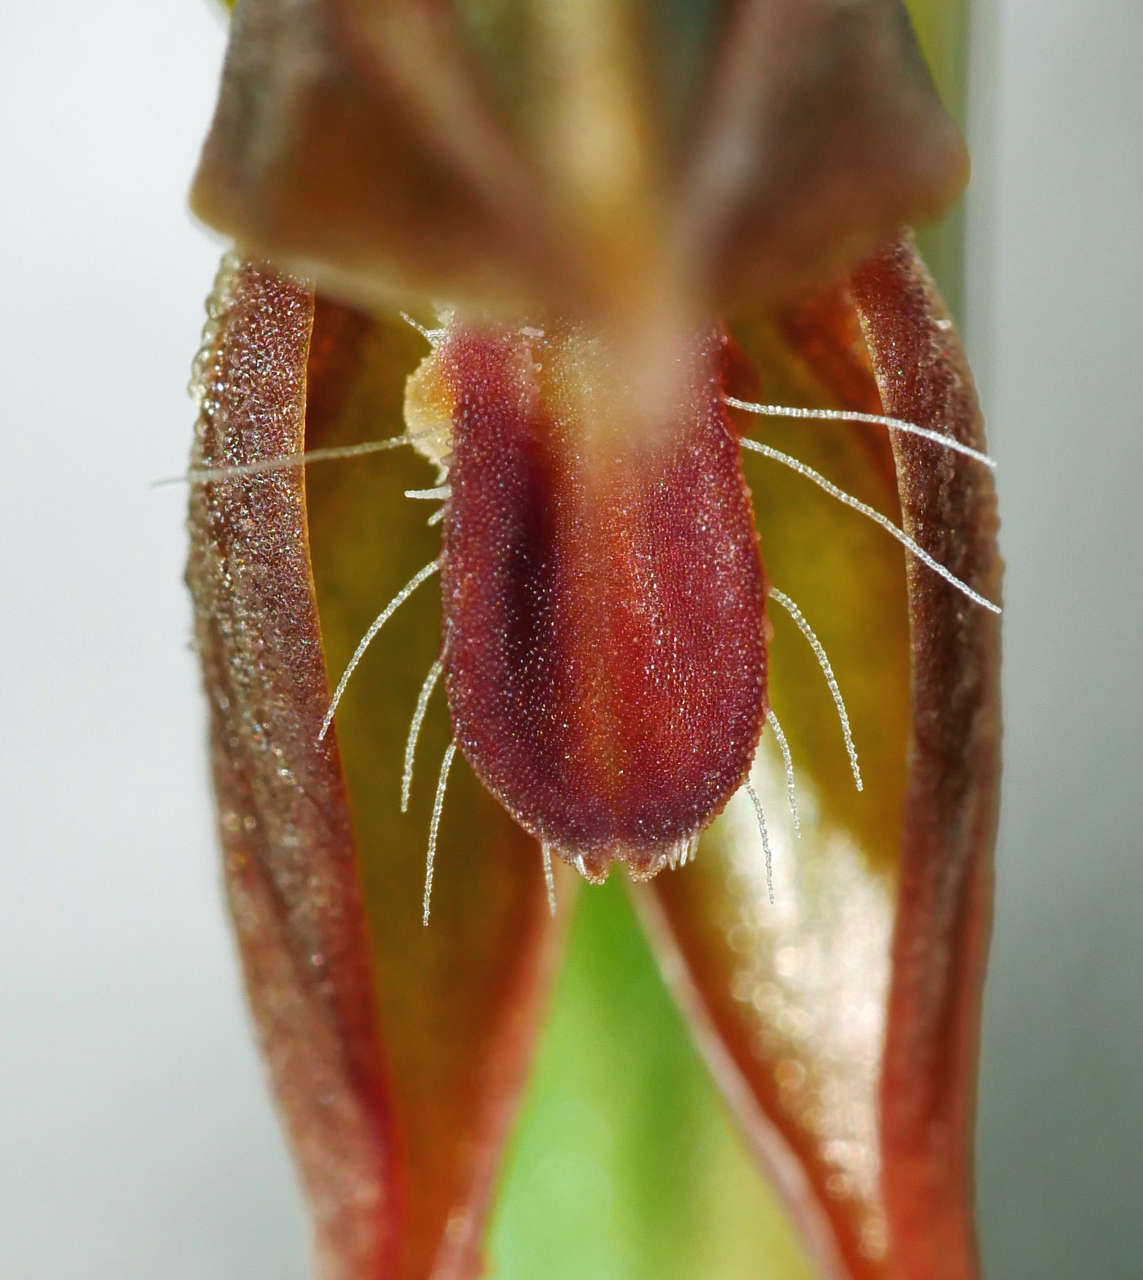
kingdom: Plantae
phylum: Tracheophyta
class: Liliopsida
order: Asparagales
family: Orchidaceae
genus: Pterostylis
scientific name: Pterostylis aciculiformis
